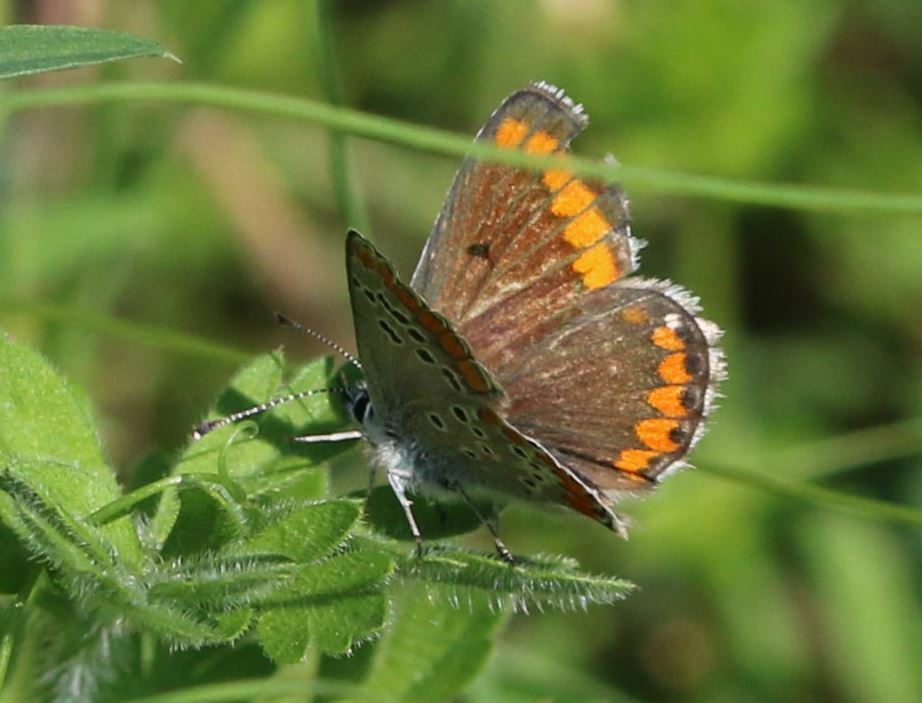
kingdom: Animalia
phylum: Arthropoda
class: Insecta
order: Lepidoptera
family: Lycaenidae
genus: Aricia
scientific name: Aricia agestis
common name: Brown argus
